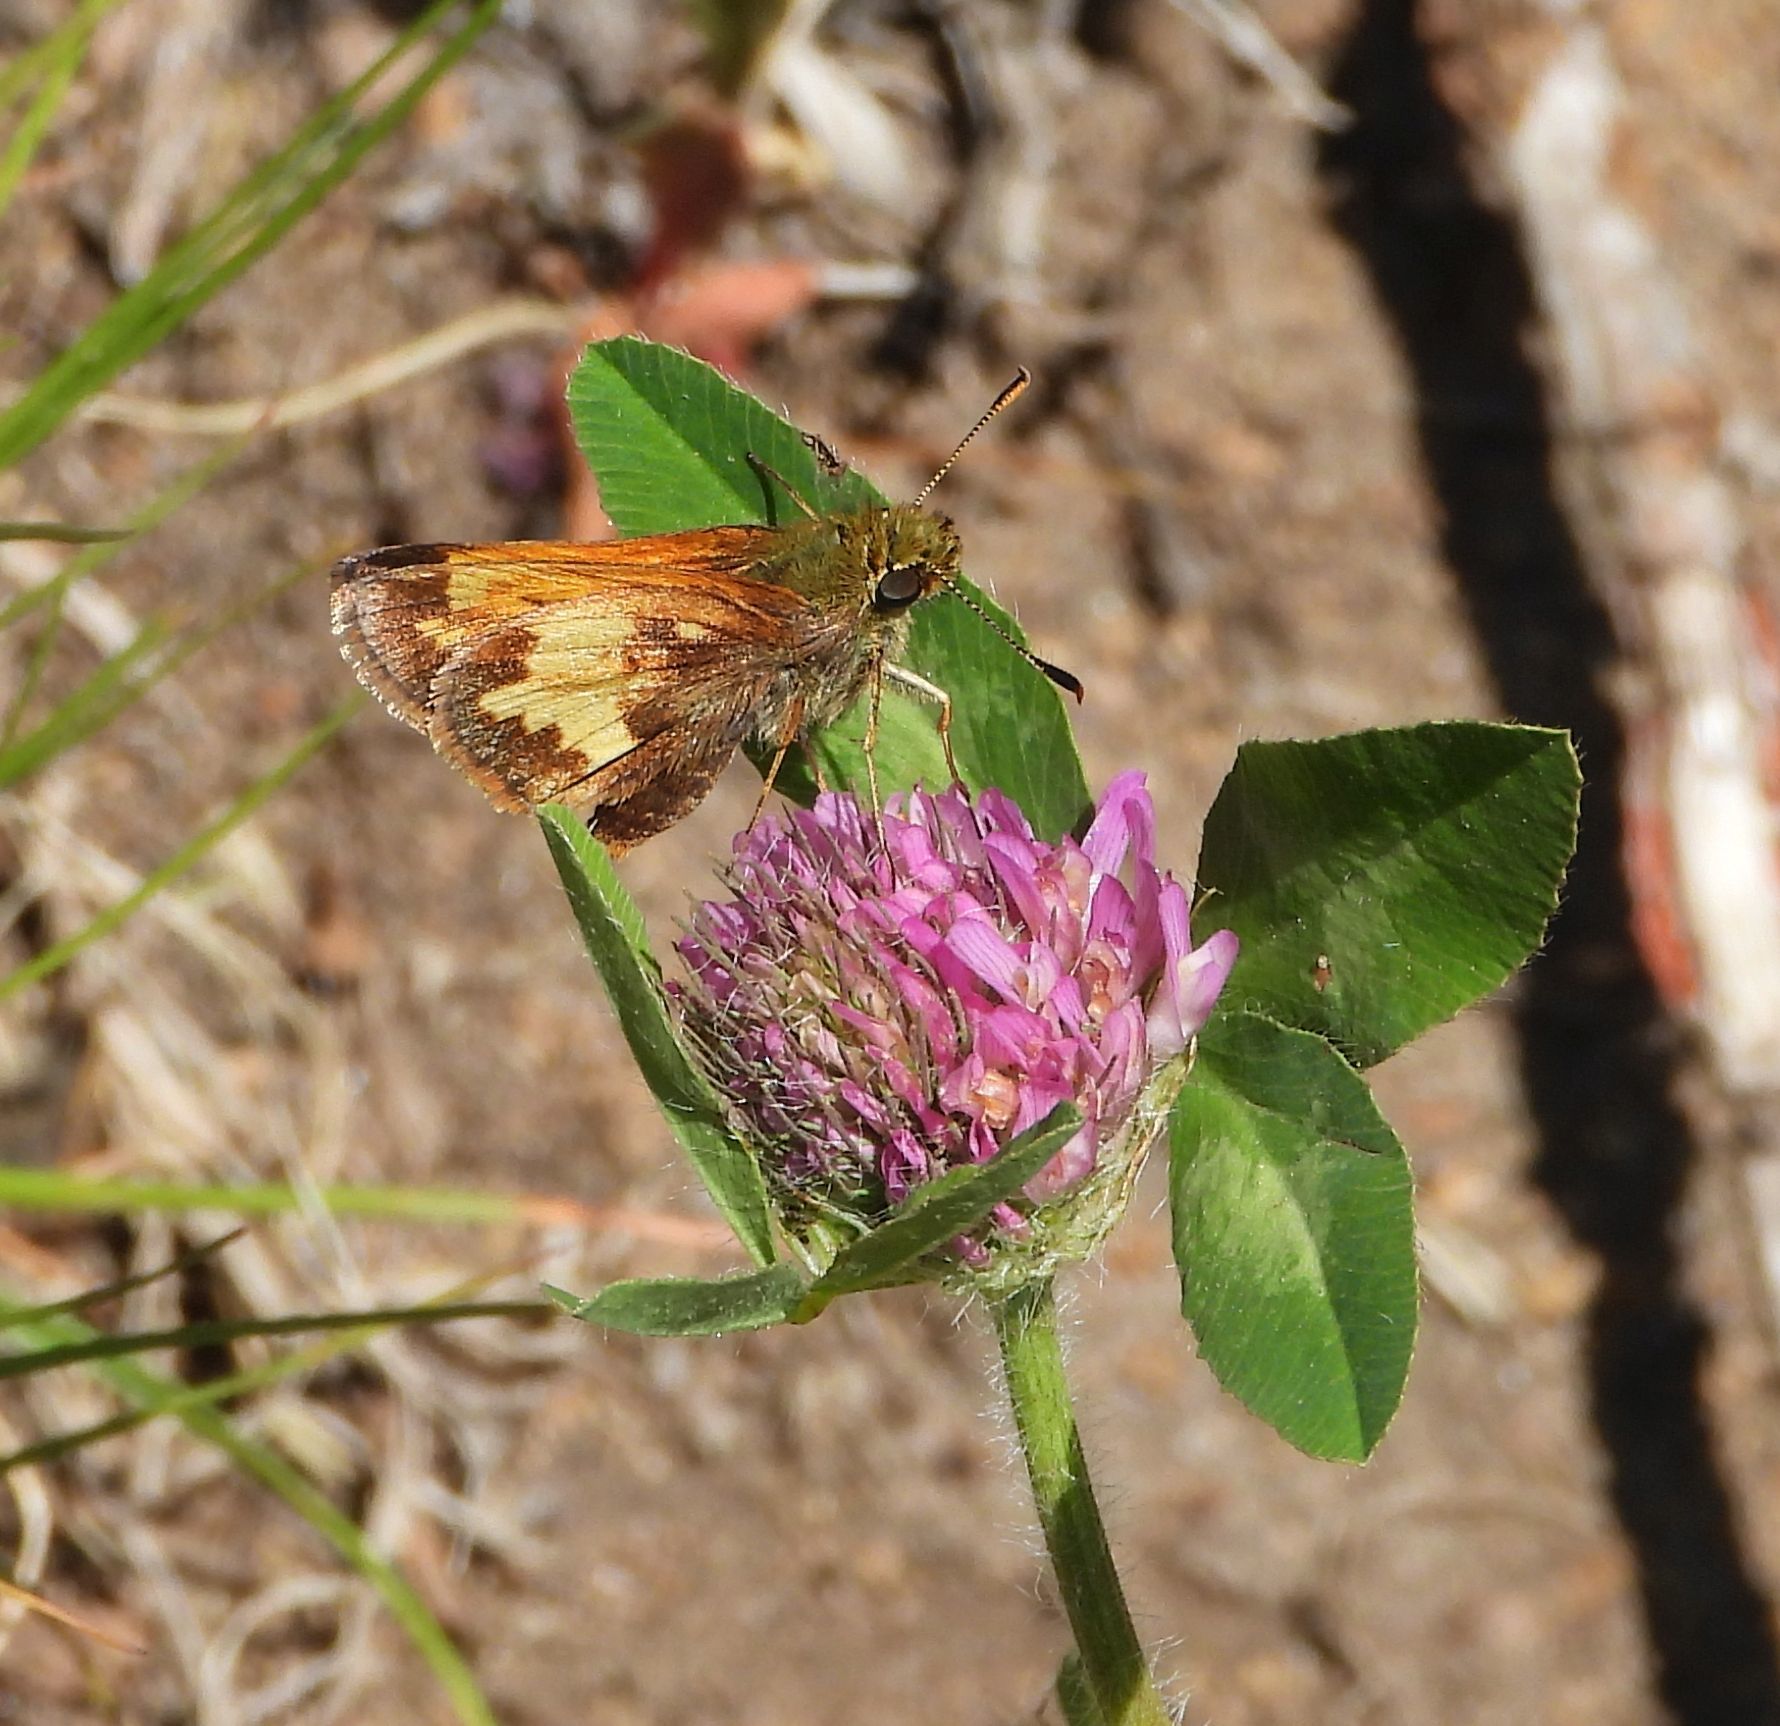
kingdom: Animalia
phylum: Arthropoda
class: Insecta
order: Lepidoptera
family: Hesperiidae
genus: Lon
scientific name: Lon hobomok
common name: Hobomok skipper
